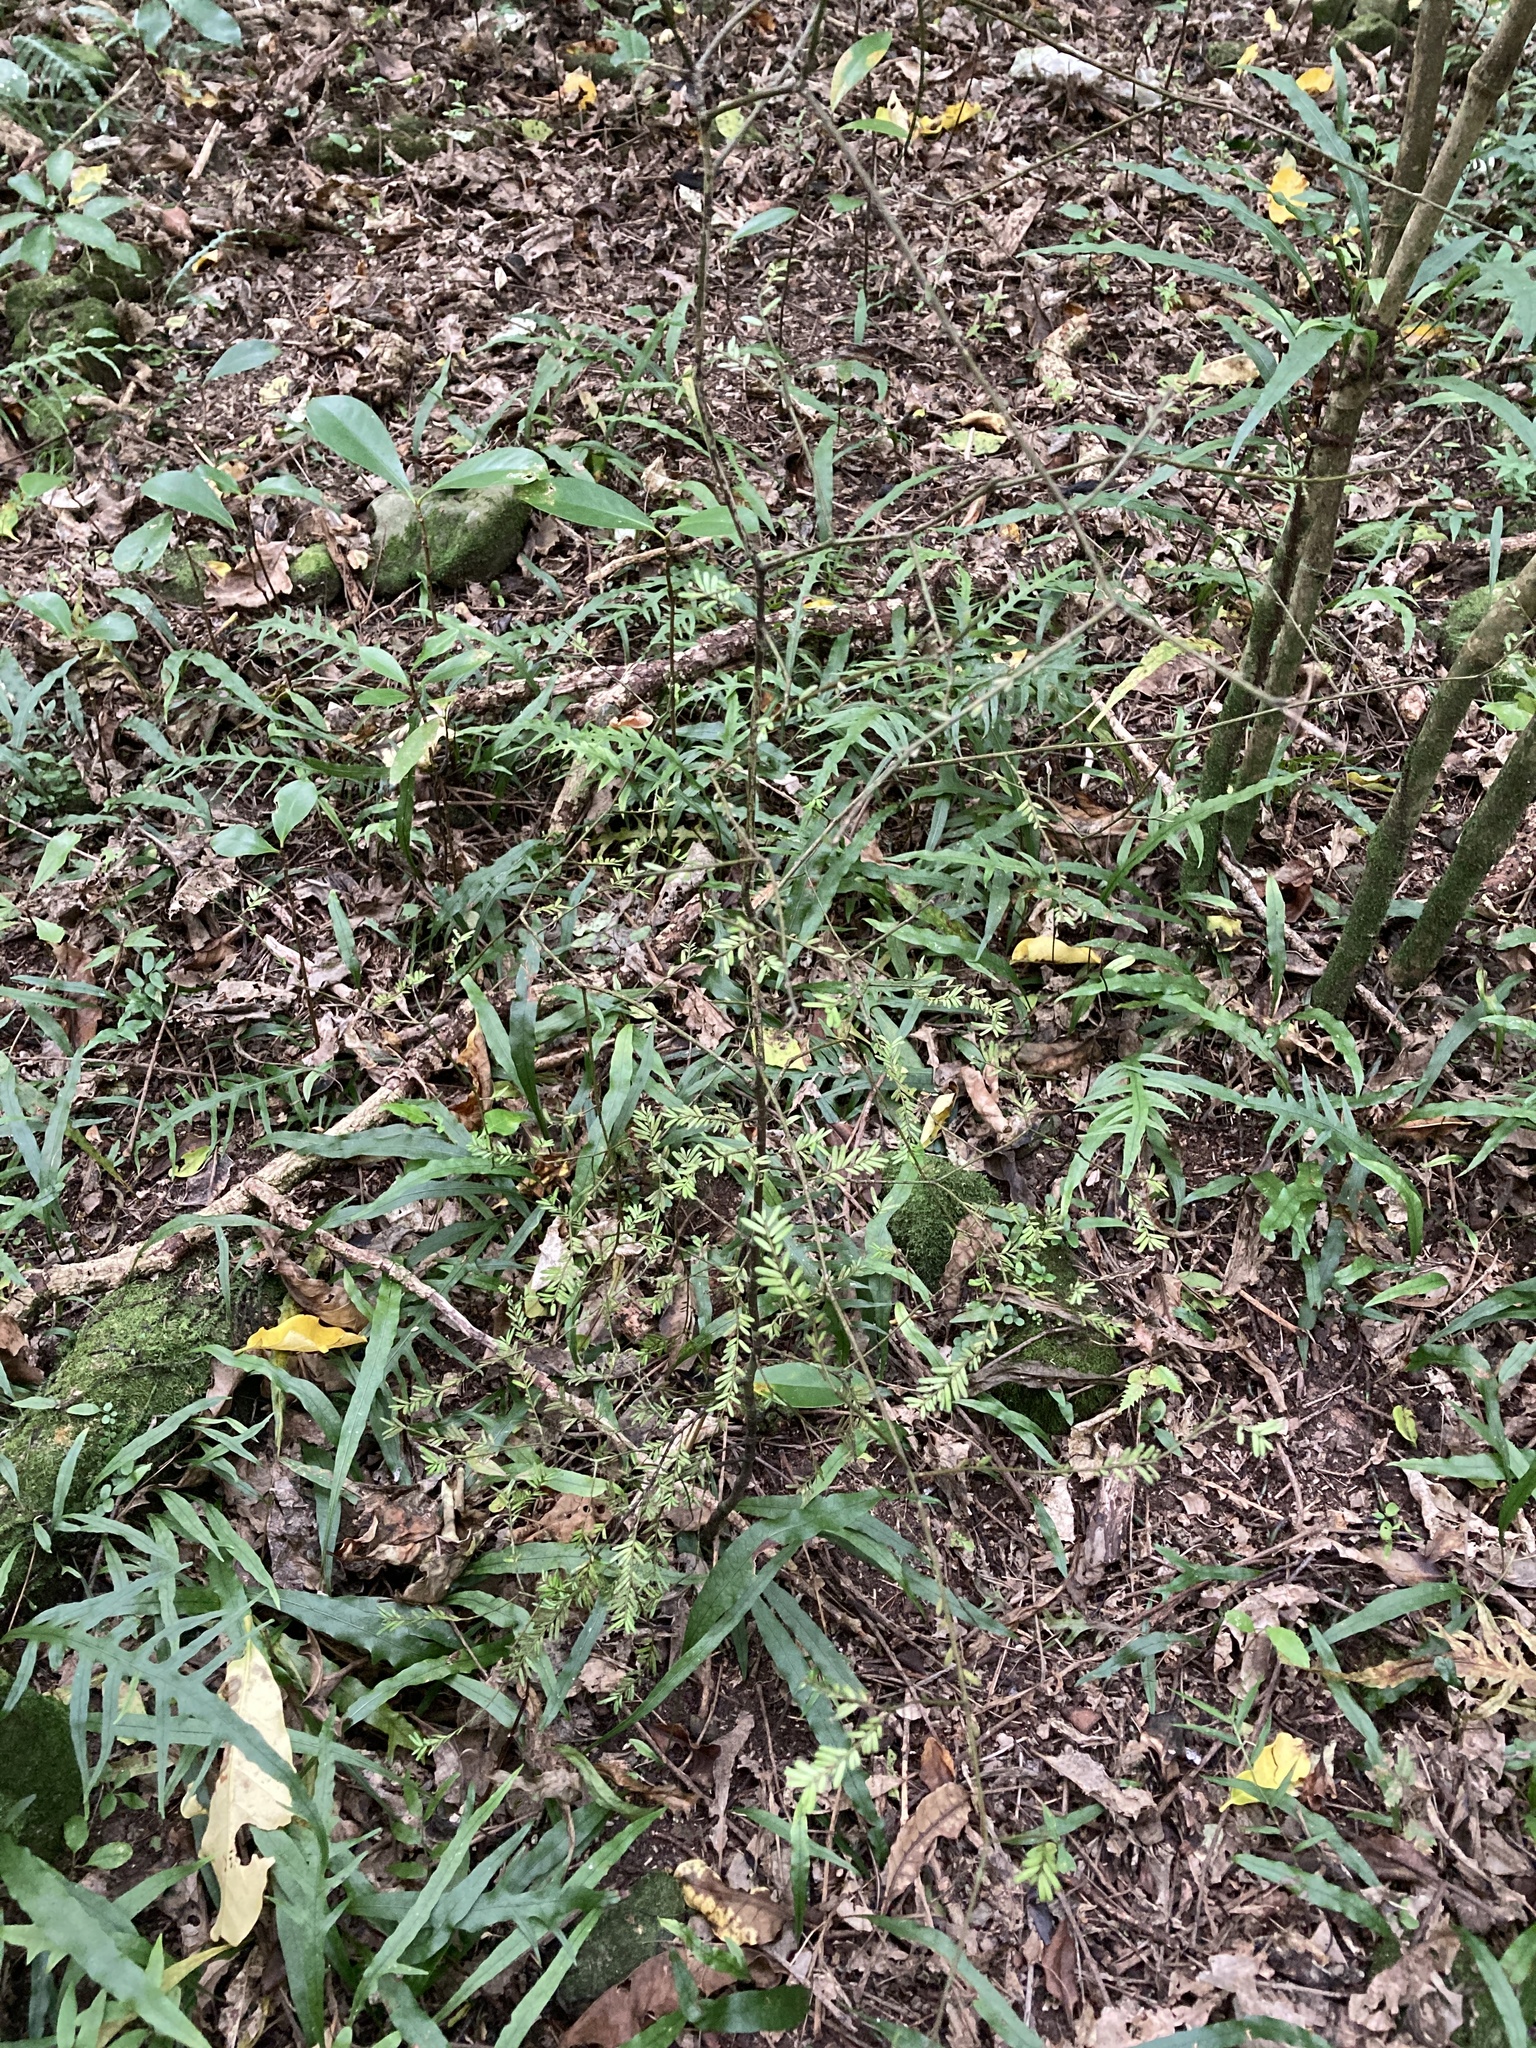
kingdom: Plantae
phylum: Tracheophyta
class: Pinopsida
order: Pinales
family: Podocarpaceae
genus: Prumnopitys
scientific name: Prumnopitys taxifolia
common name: Matai
